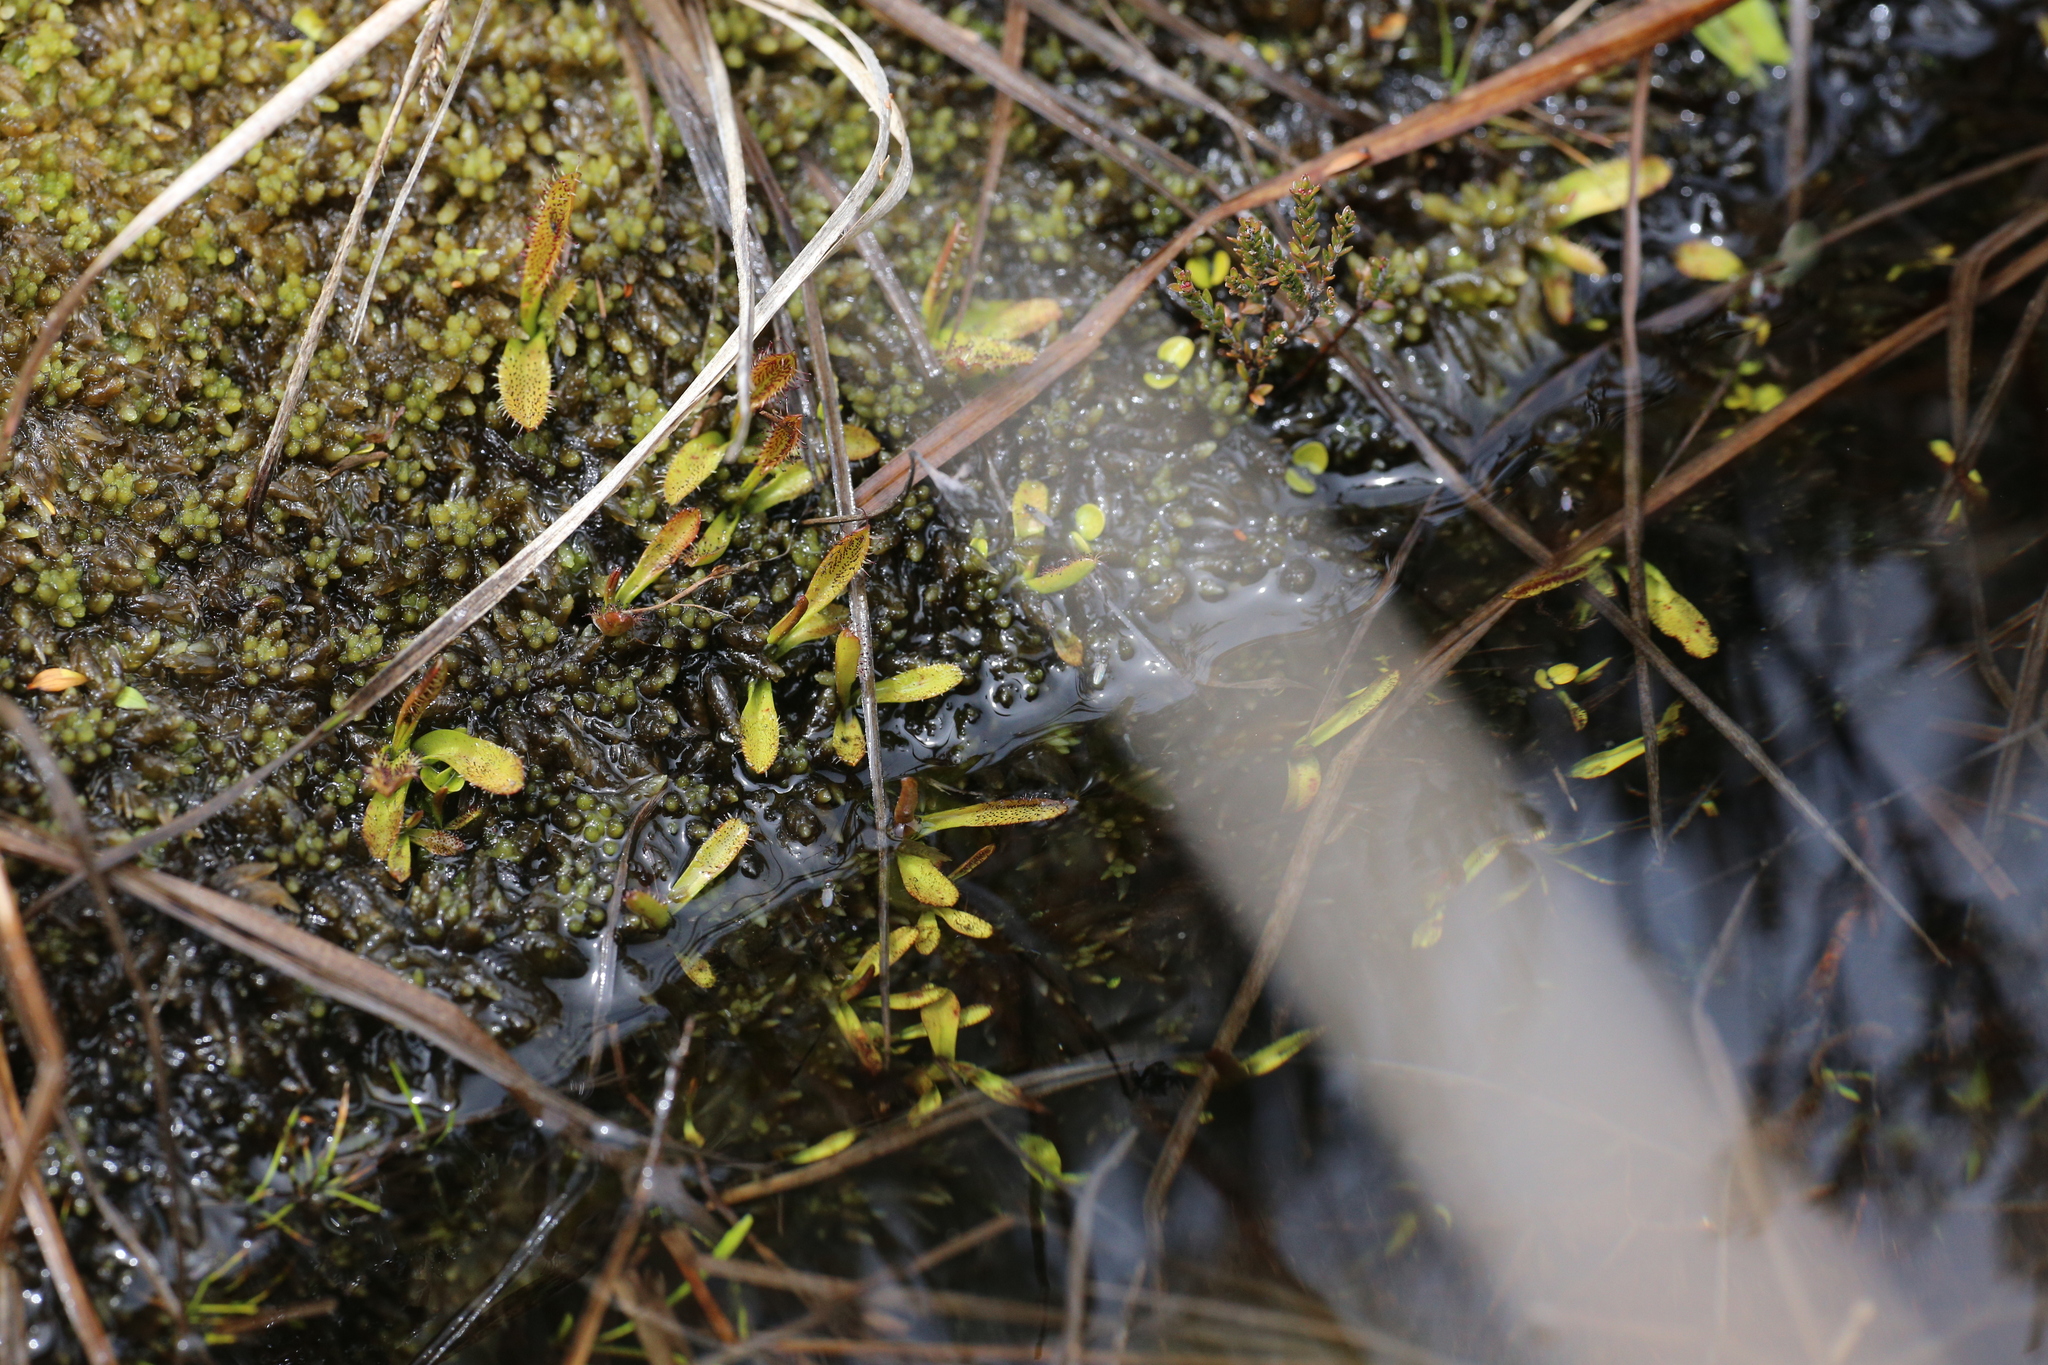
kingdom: Plantae
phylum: Tracheophyta
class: Magnoliopsida
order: Caryophyllales
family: Droseraceae
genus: Drosera
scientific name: Drosera arcturi
